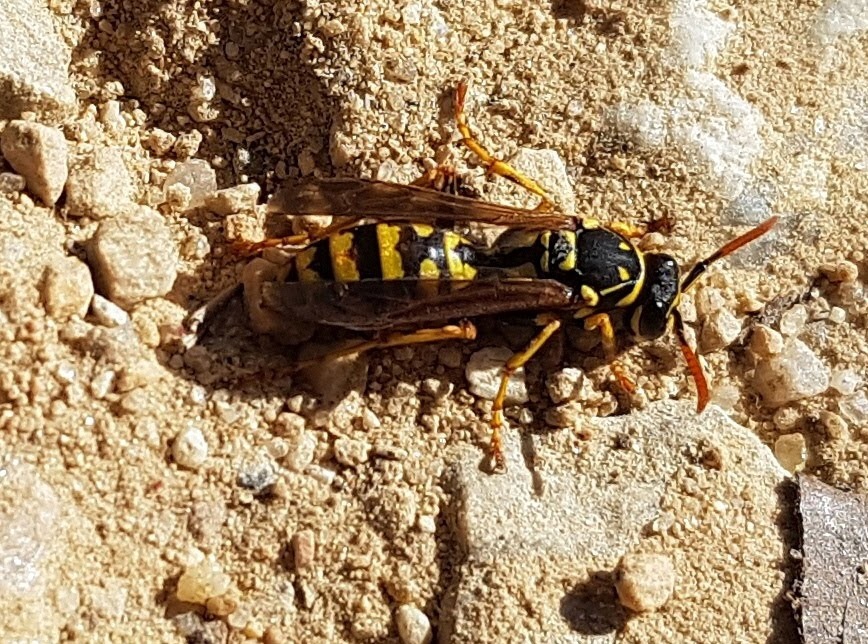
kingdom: Animalia
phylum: Arthropoda
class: Insecta
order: Hymenoptera
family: Eumenidae
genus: Polistes
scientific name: Polistes dominula
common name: Paper wasp
